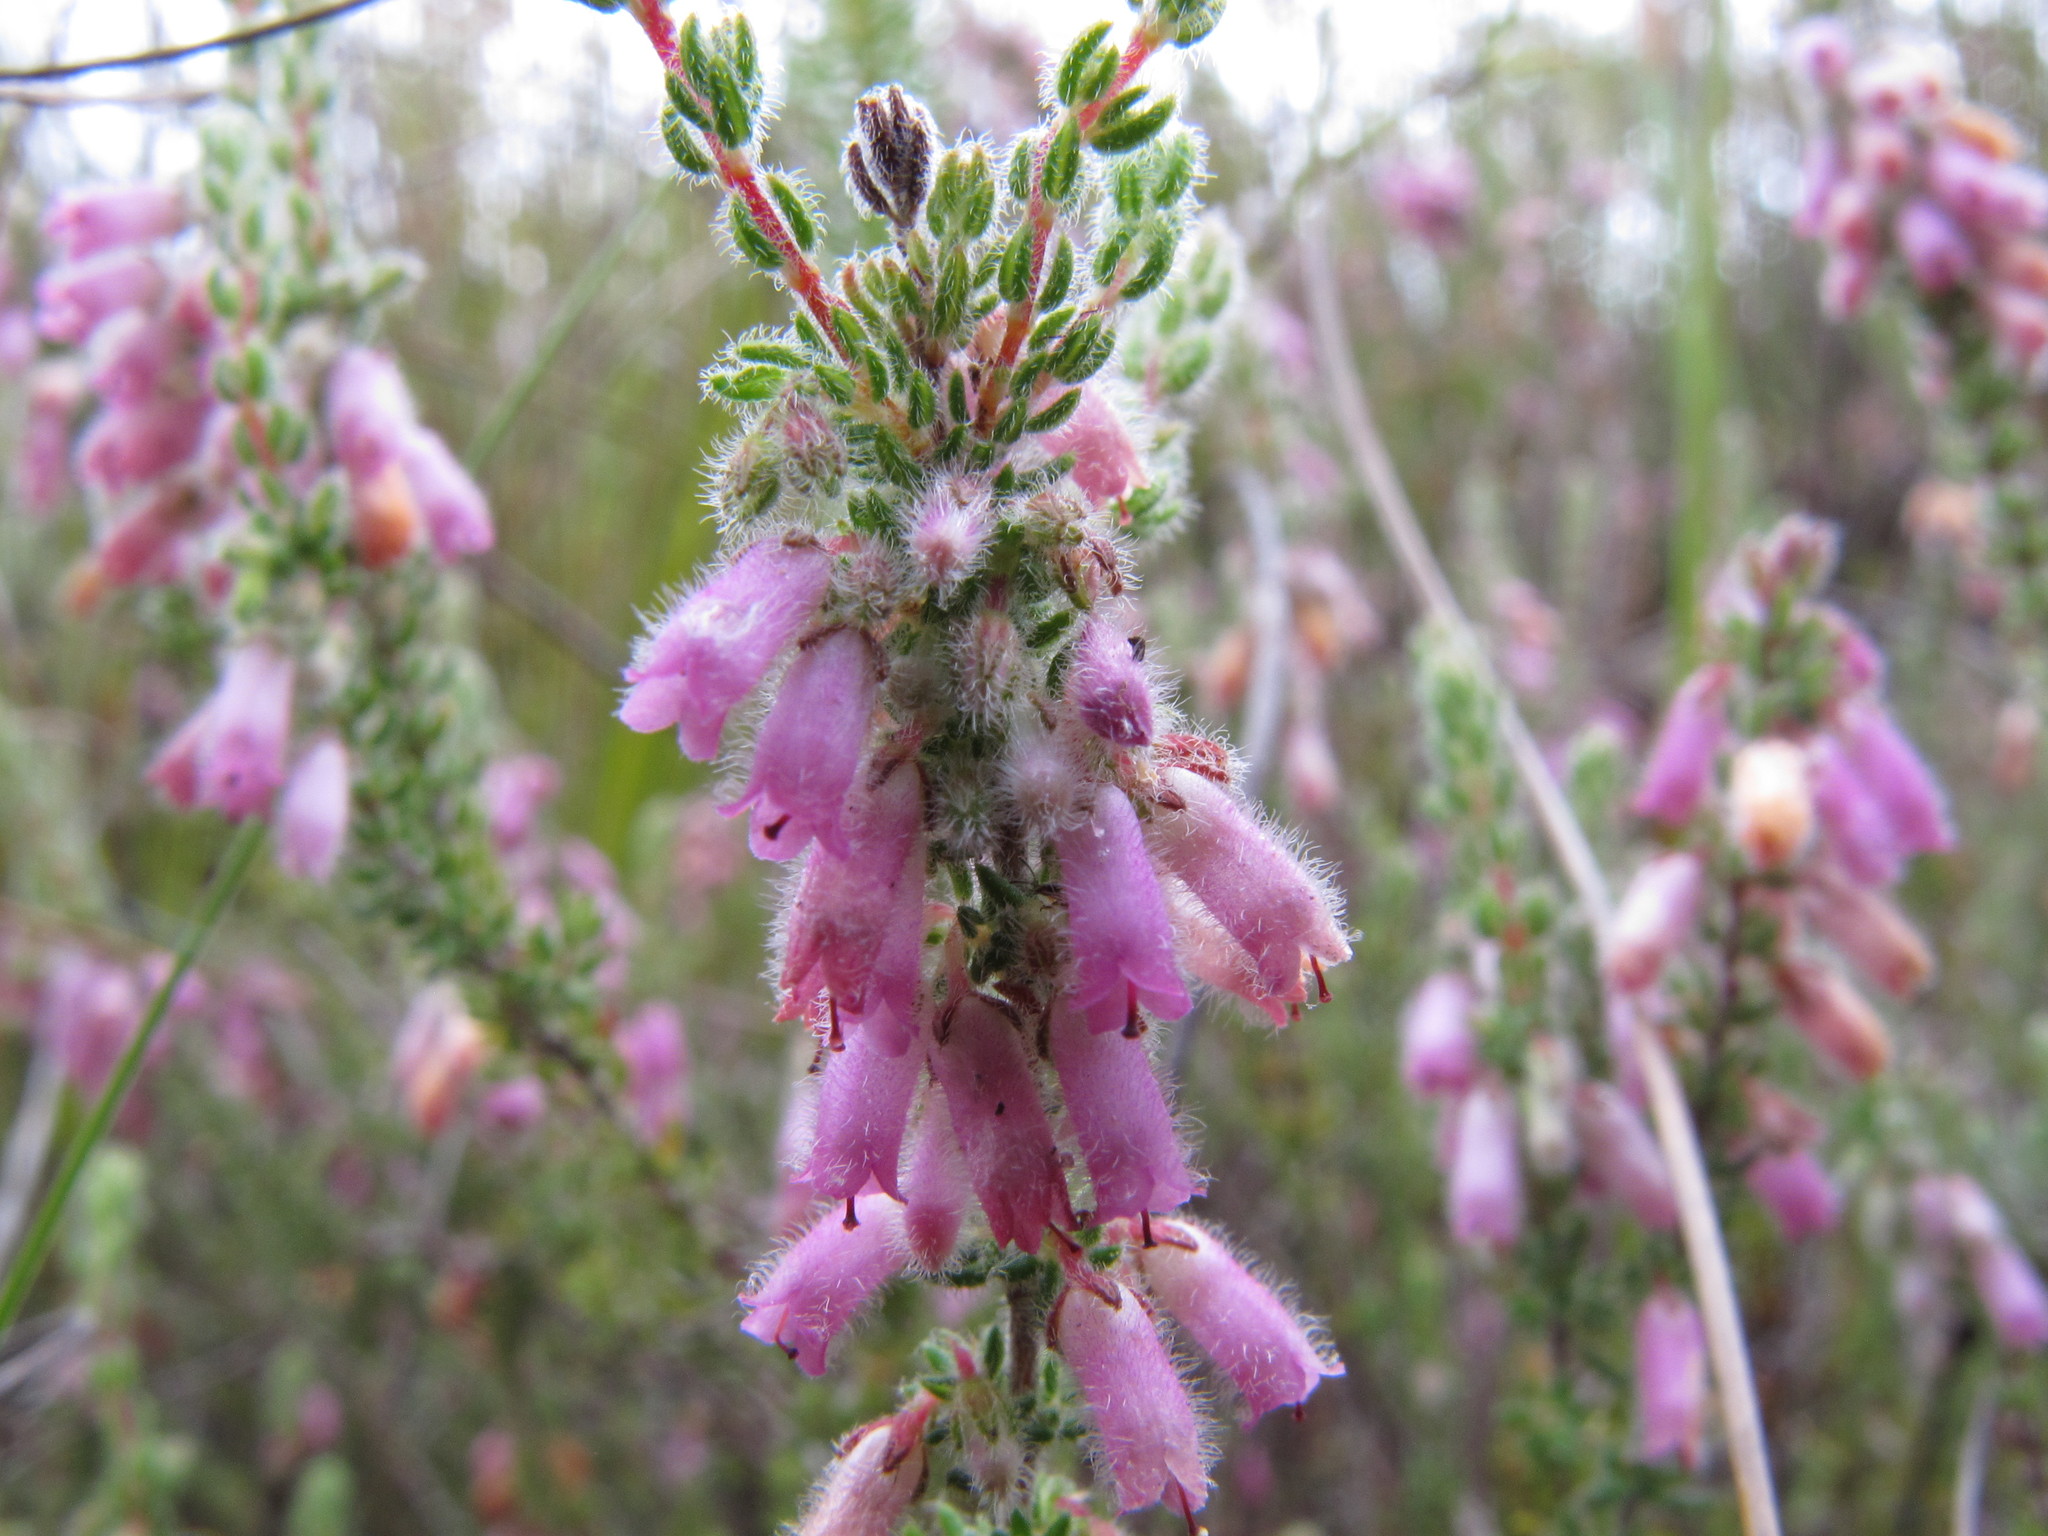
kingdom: Plantae
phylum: Tracheophyta
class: Magnoliopsida
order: Ericales
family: Ericaceae
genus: Erica
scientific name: Erica garciae
